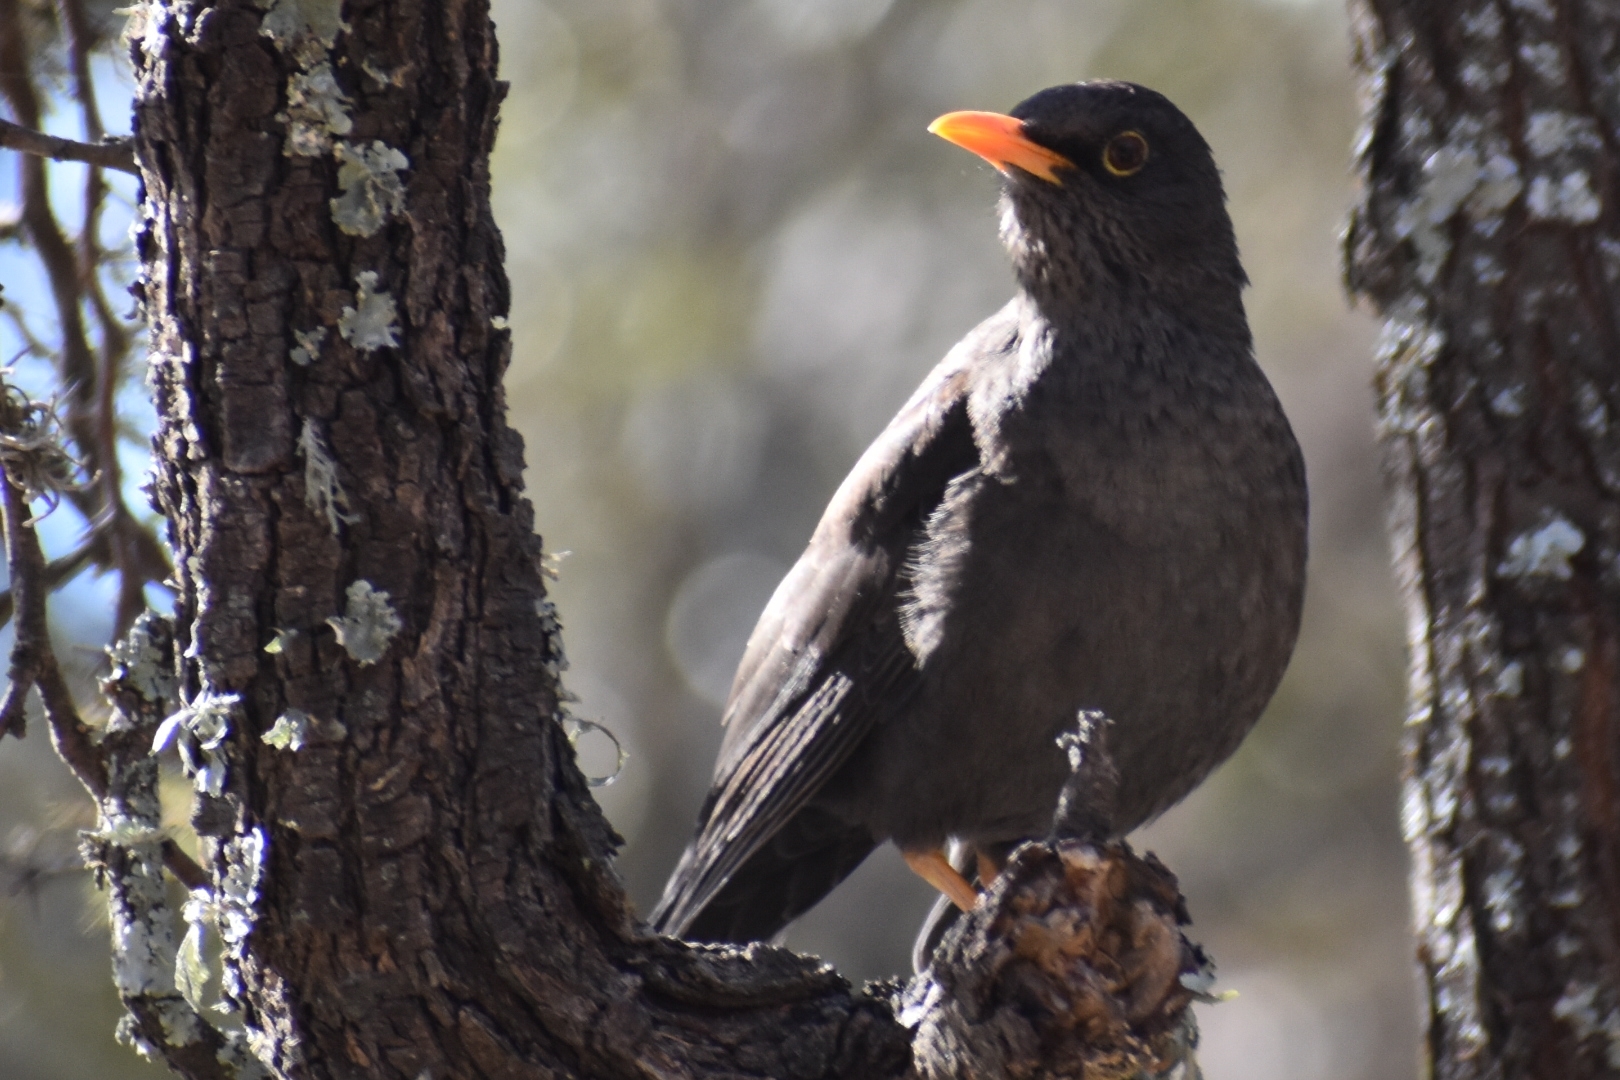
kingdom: Animalia
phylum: Chordata
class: Aves
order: Passeriformes
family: Turdidae
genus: Turdus
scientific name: Turdus chiguanco
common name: Chiguanco thrush
